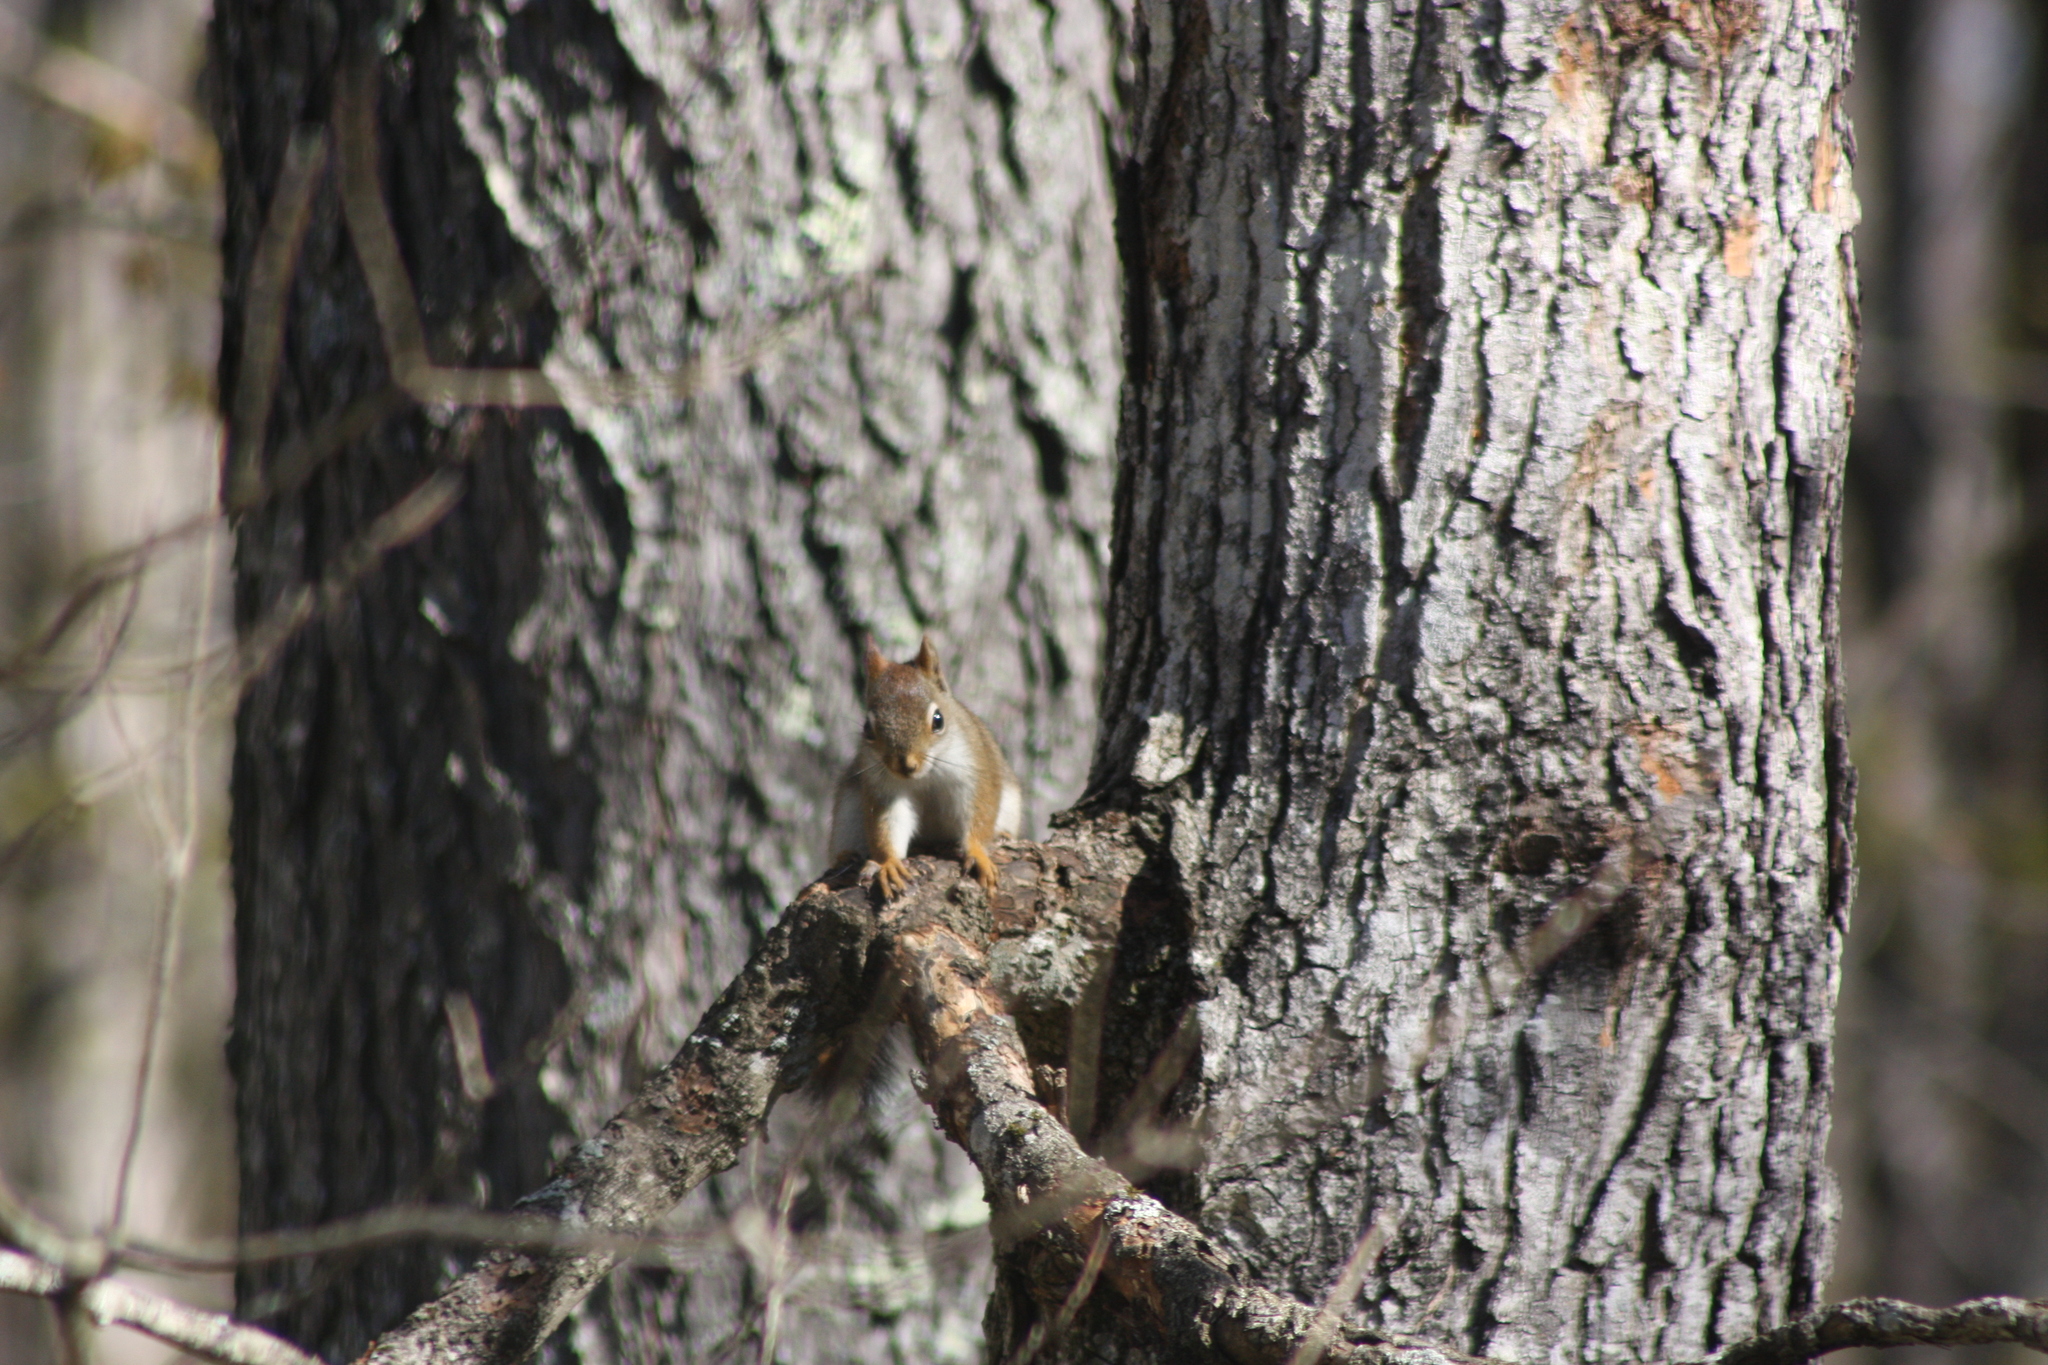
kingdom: Animalia
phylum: Chordata
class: Mammalia
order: Rodentia
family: Sciuridae
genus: Tamiasciurus
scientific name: Tamiasciurus hudsonicus
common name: Red squirrel
